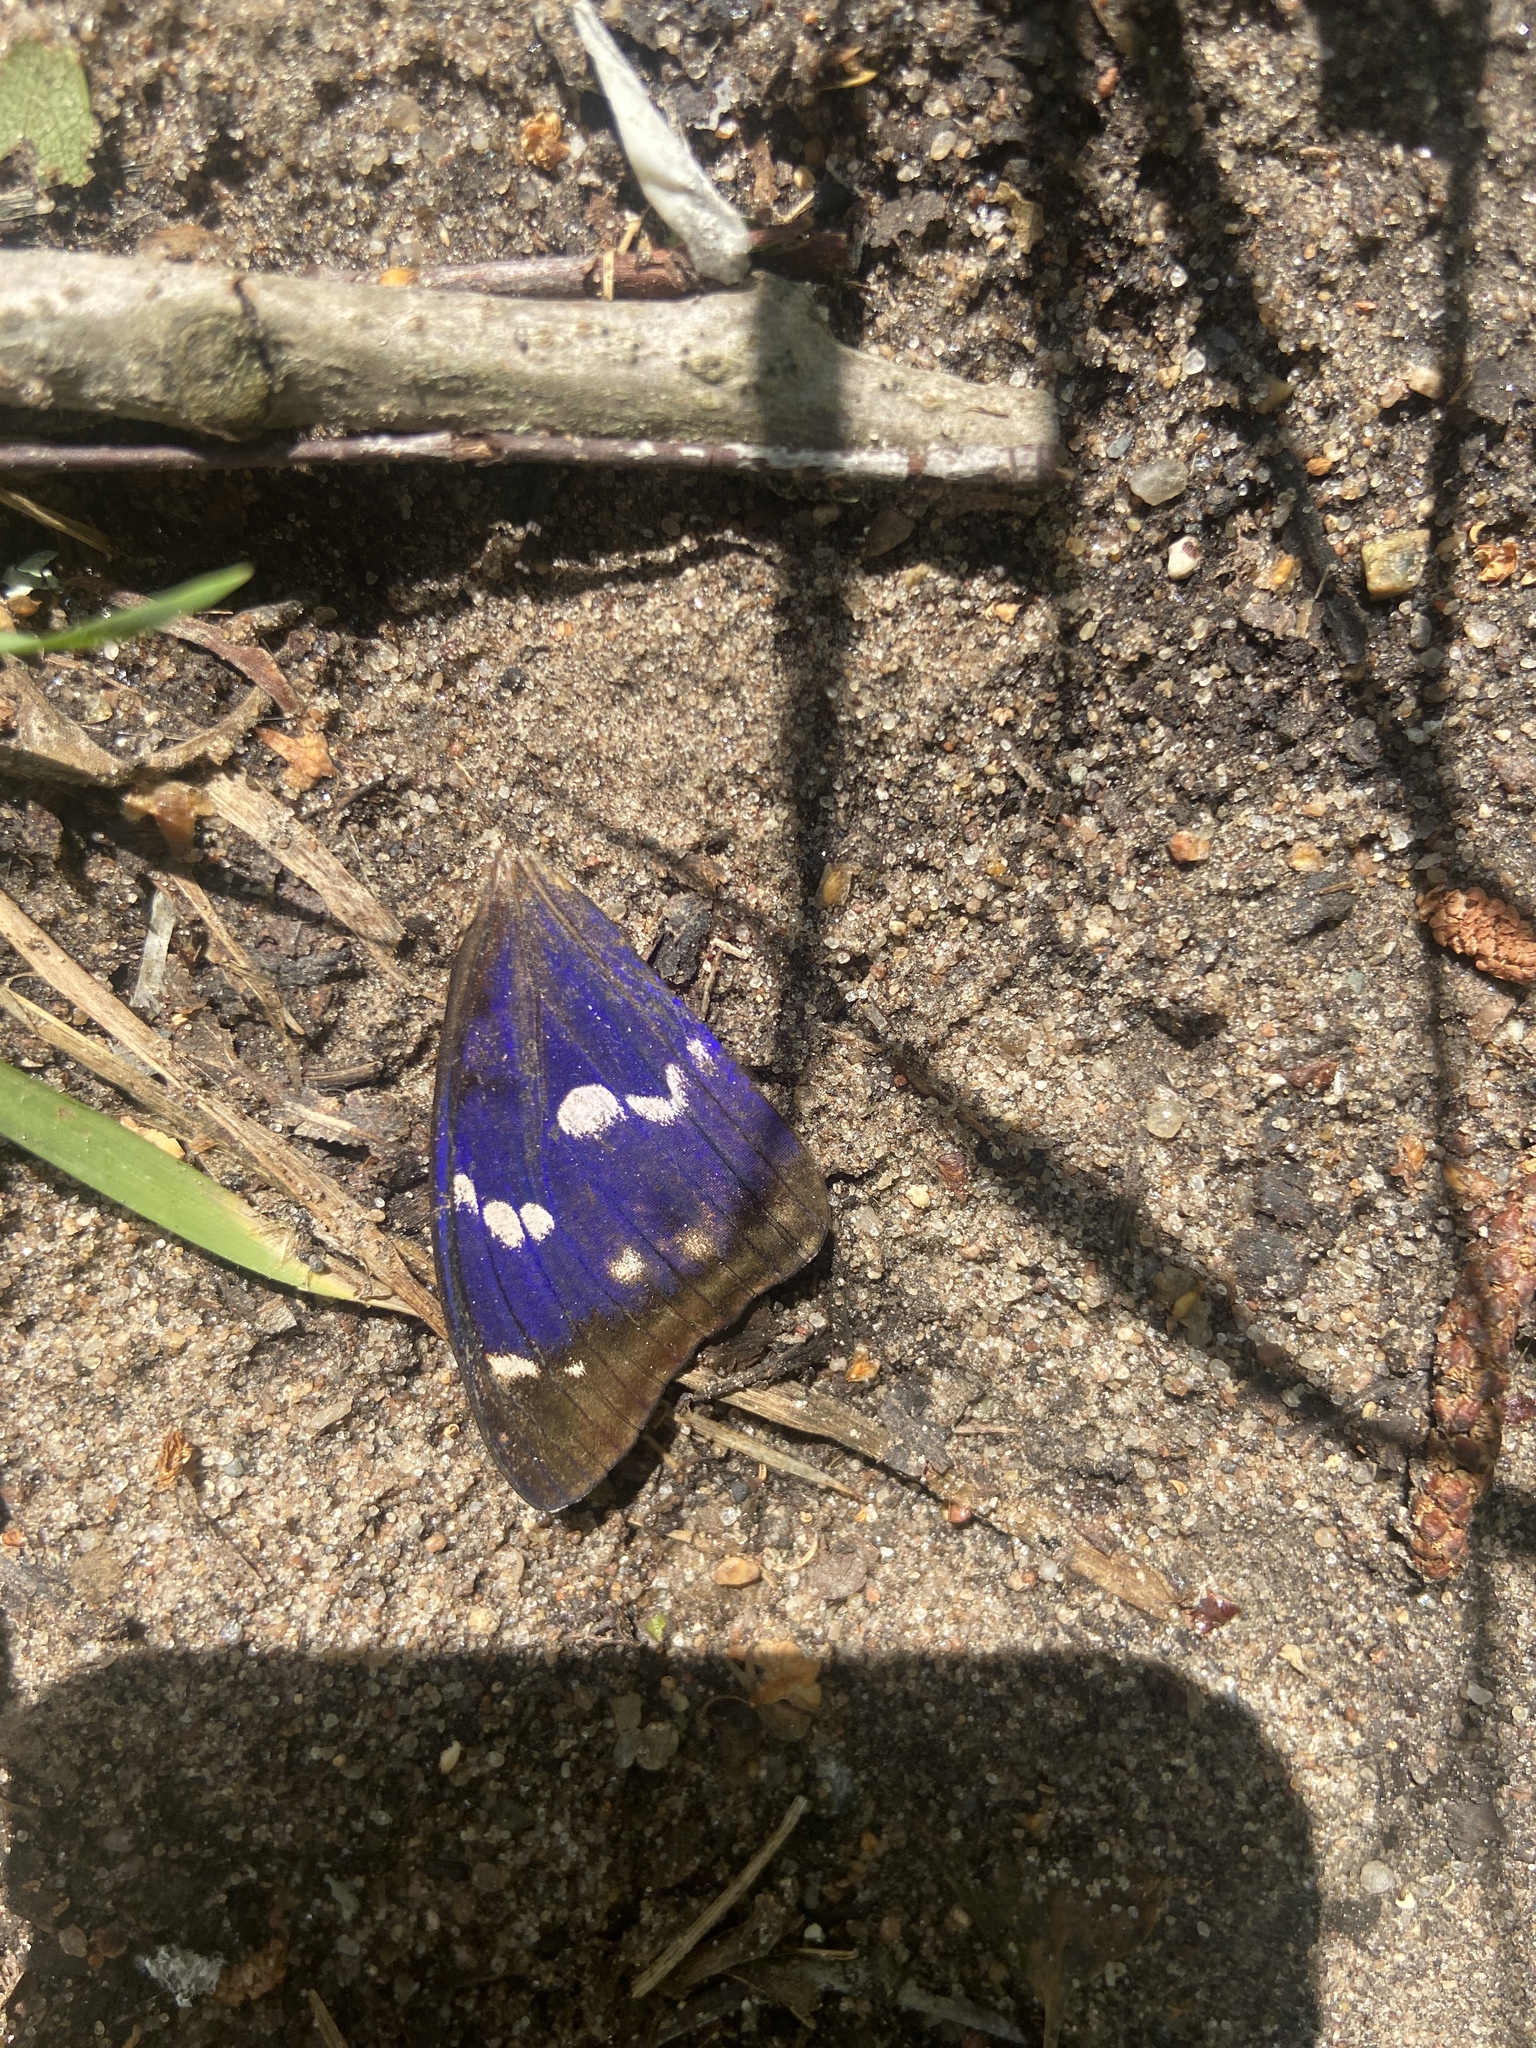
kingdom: Animalia
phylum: Arthropoda
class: Insecta
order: Lepidoptera
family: Nymphalidae
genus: Apatura
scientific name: Apatura iris
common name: Purple emperor
